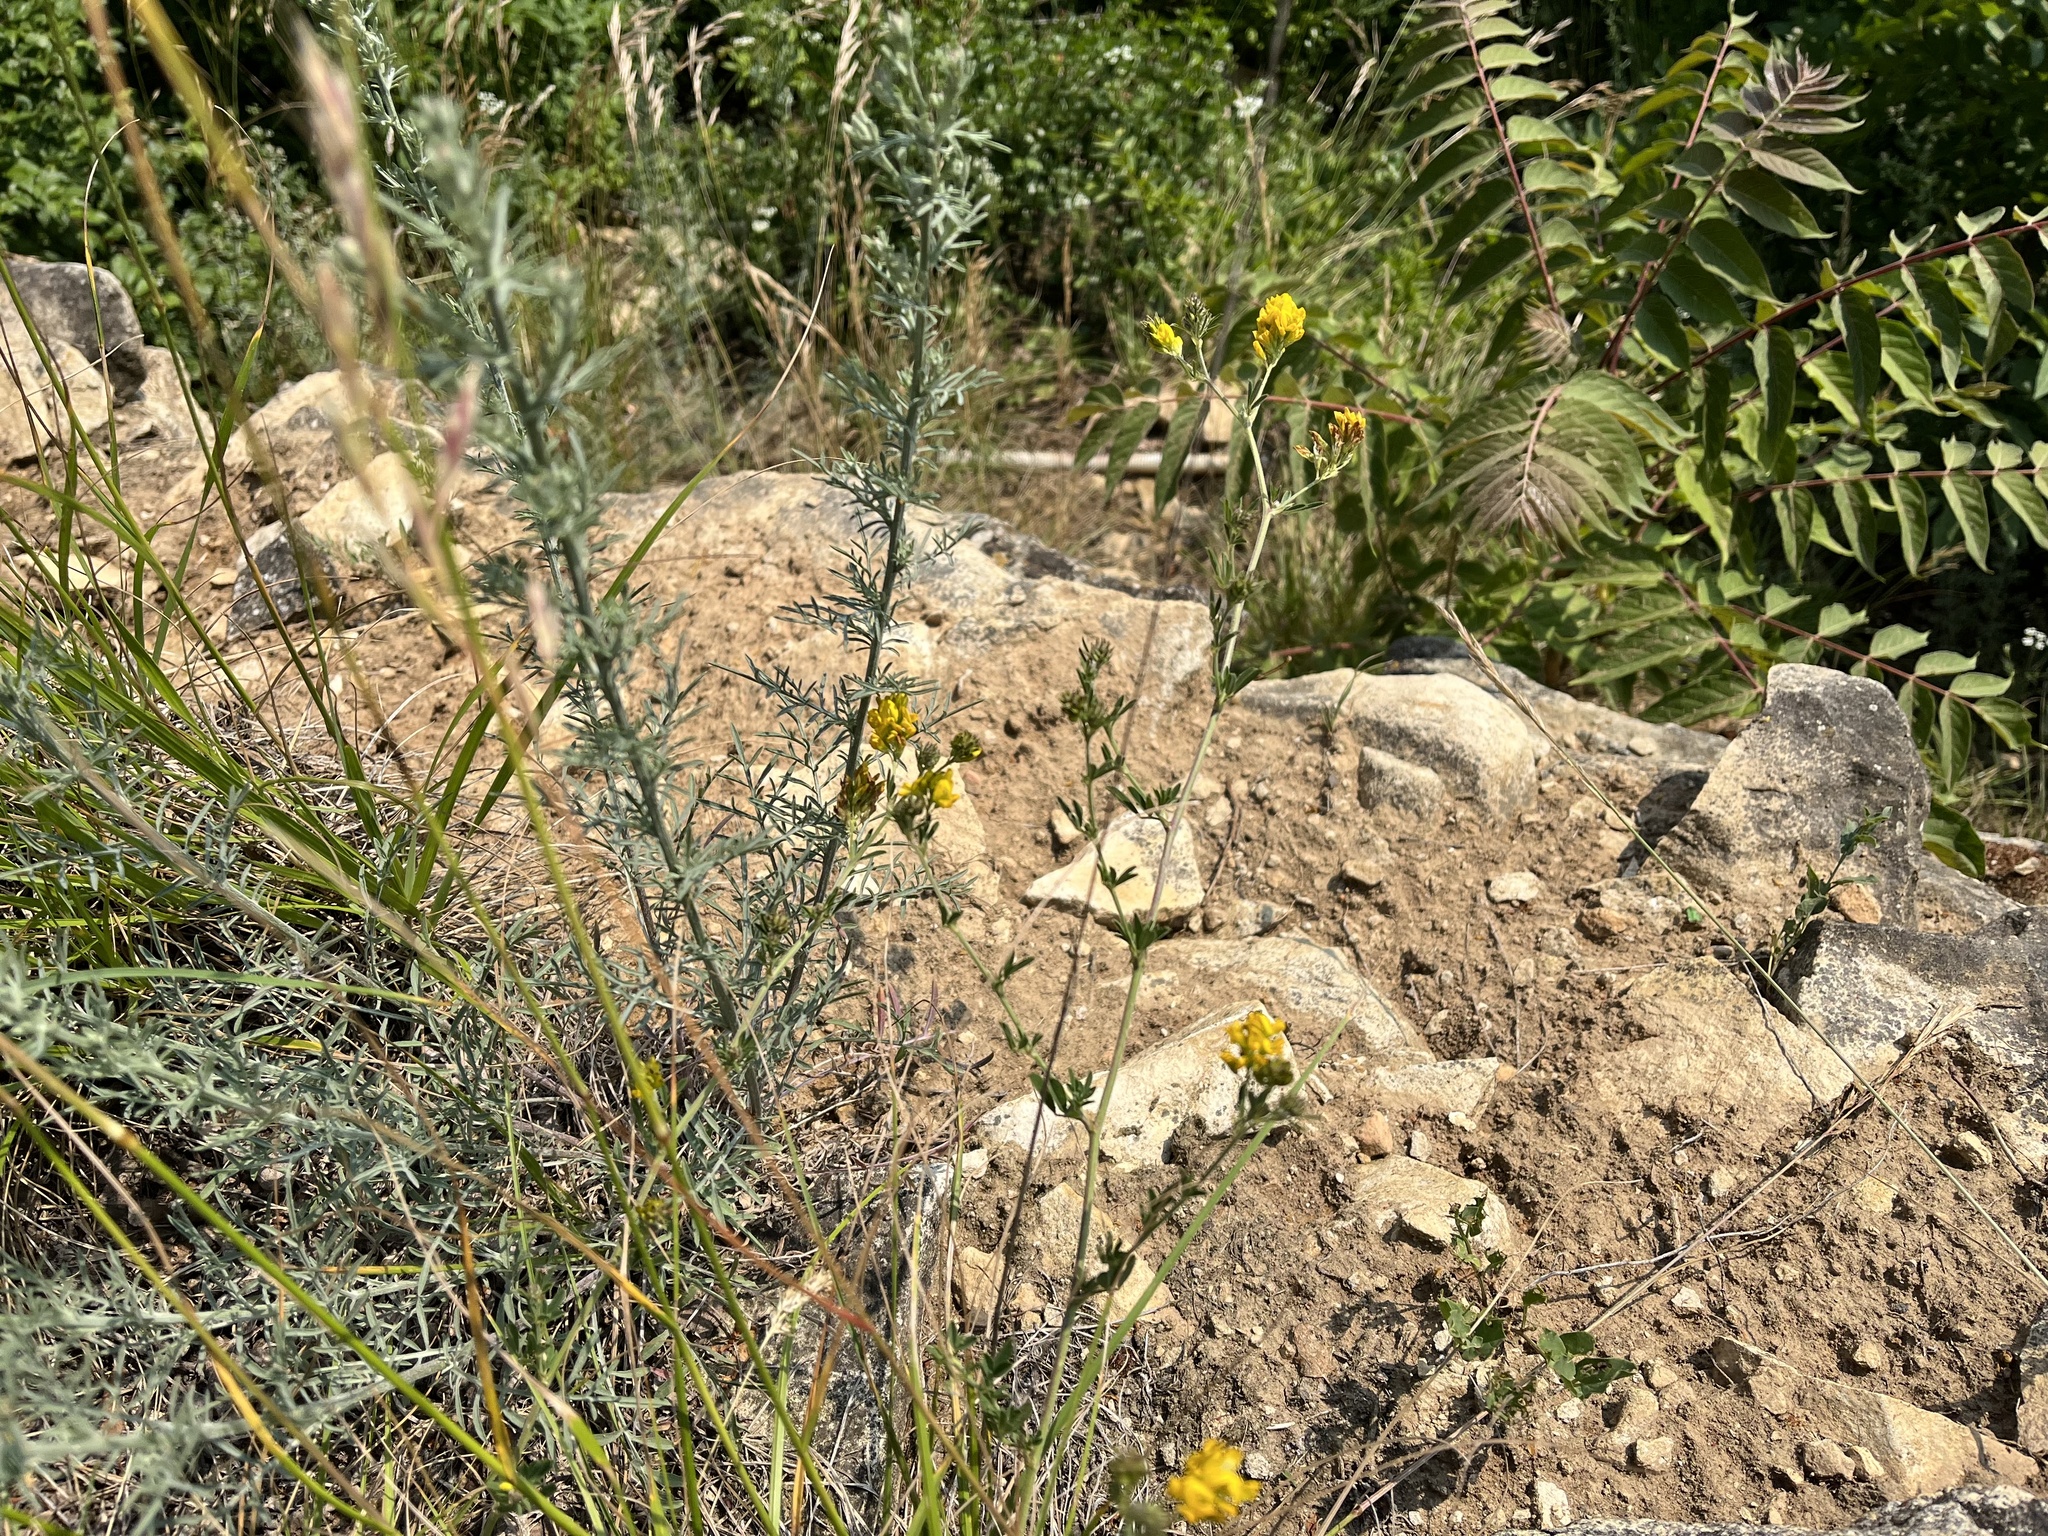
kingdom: Plantae
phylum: Tracheophyta
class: Magnoliopsida
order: Fabales
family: Fabaceae
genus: Medicago
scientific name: Medicago falcata
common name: Sickle medick
